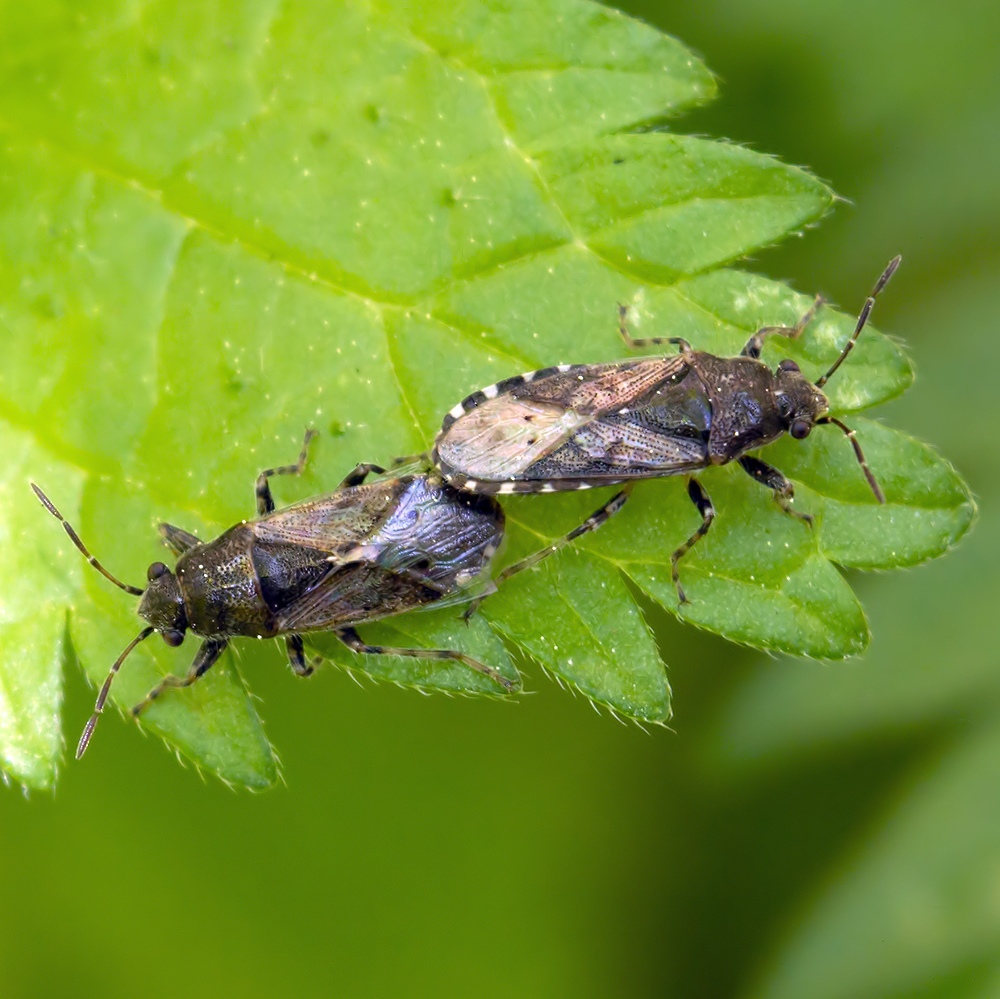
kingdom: Animalia
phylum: Arthropoda
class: Insecta
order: Hemiptera
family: Heterogastridae
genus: Heterogaster
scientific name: Heterogaster urticae
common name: Seed bug
